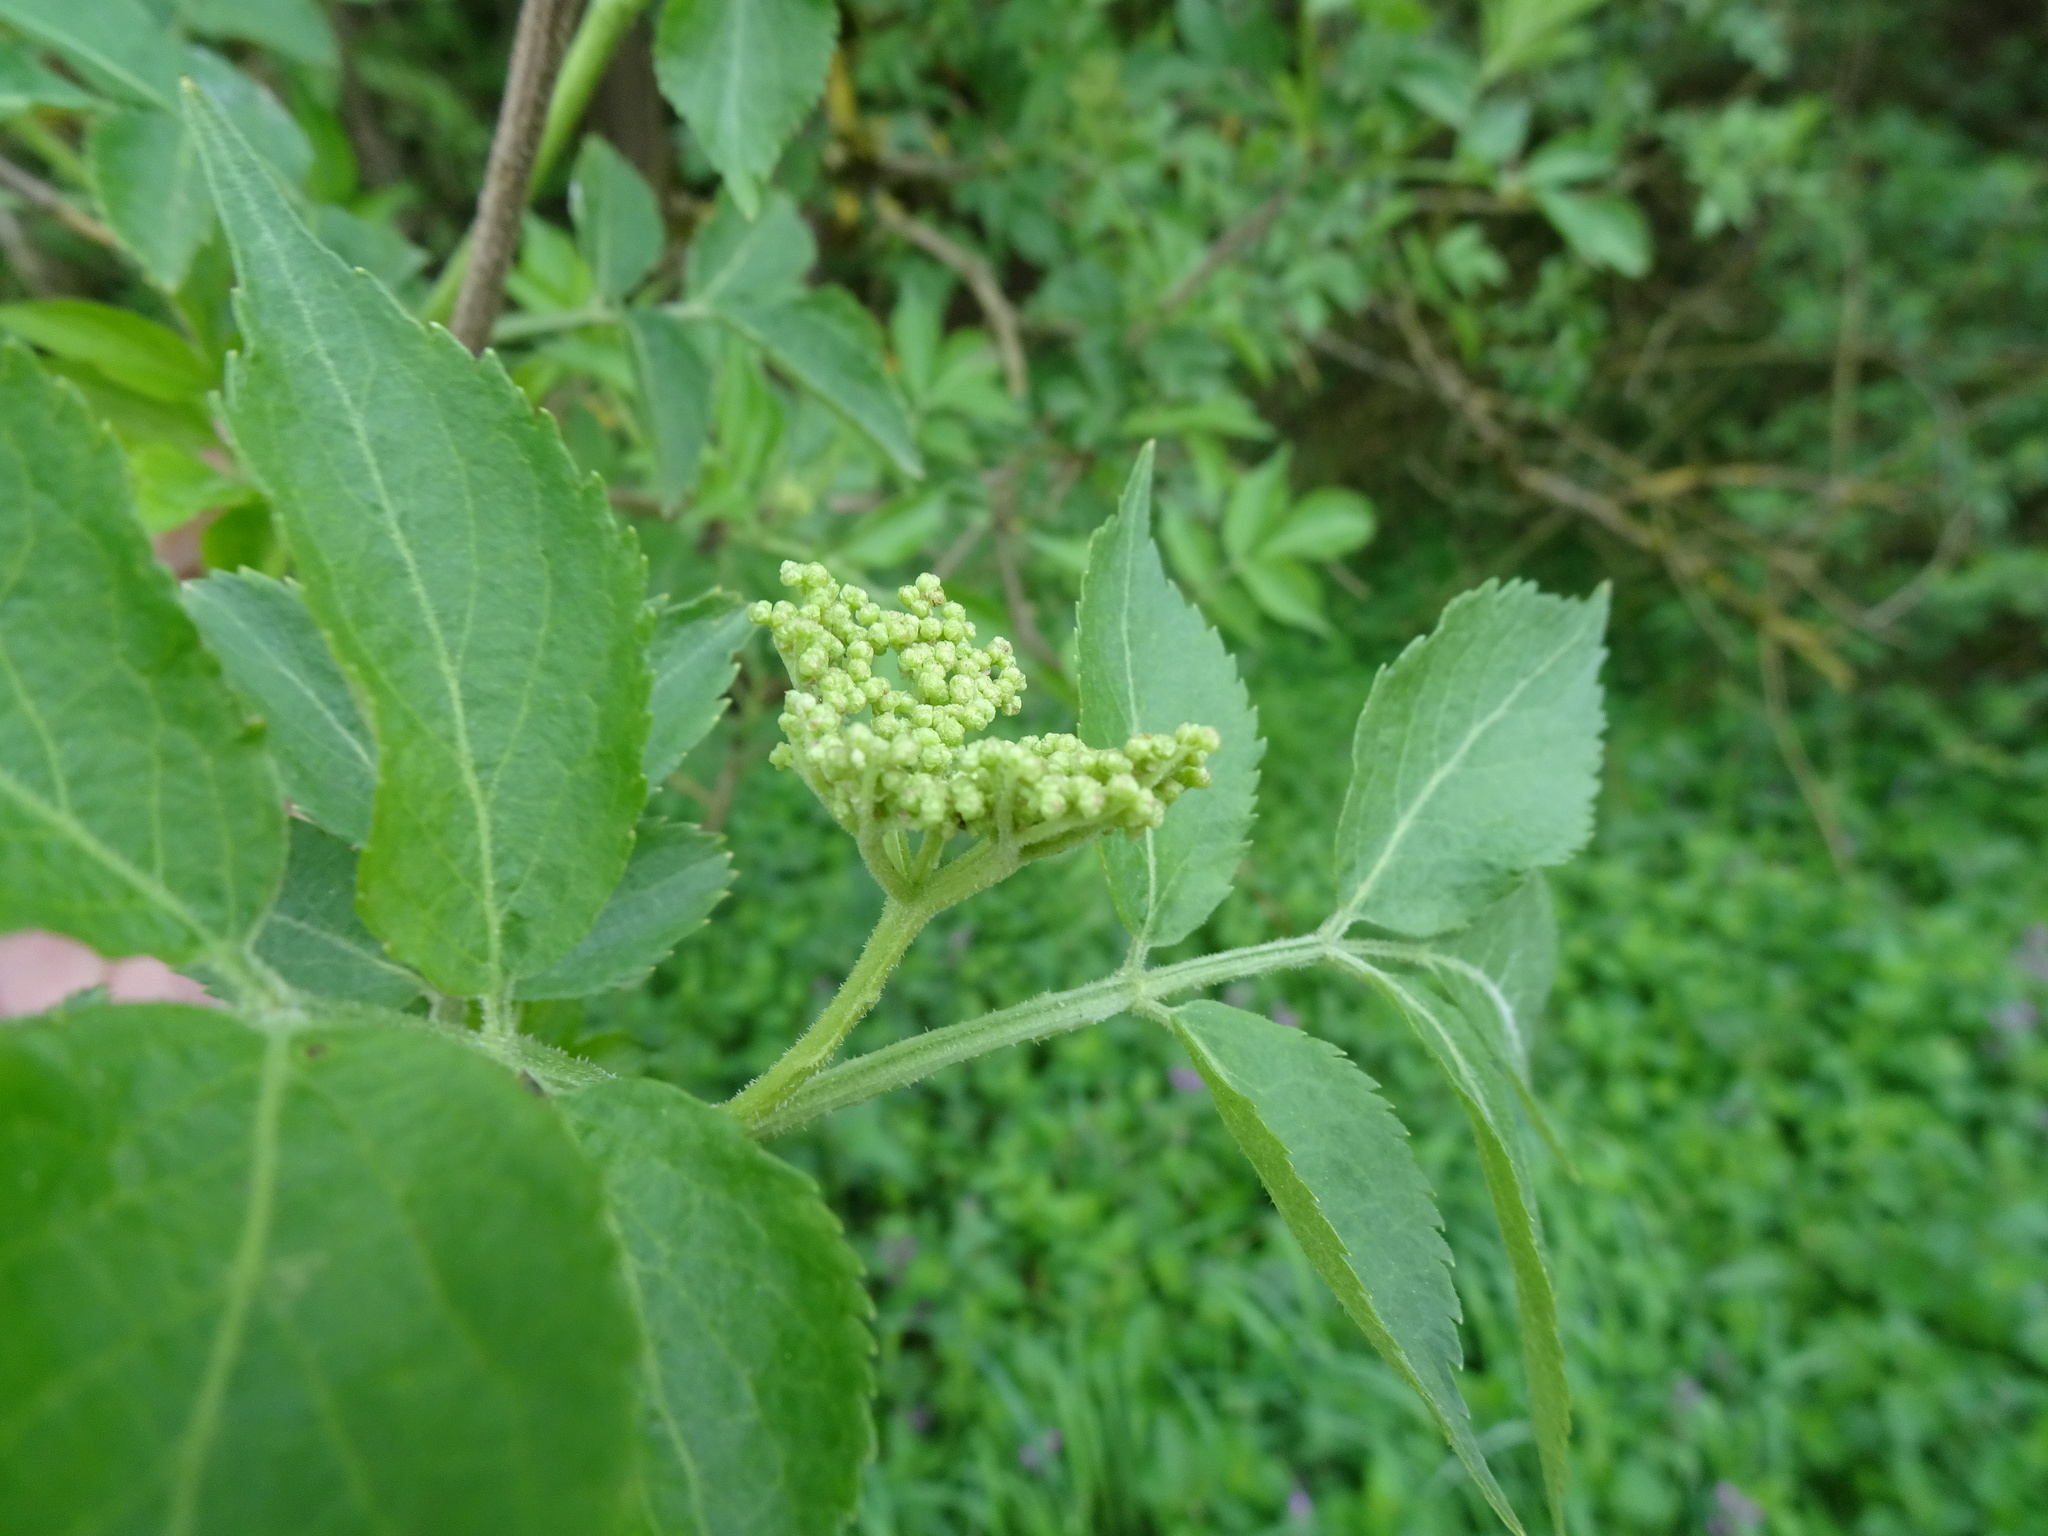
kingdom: Plantae
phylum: Tracheophyta
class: Magnoliopsida
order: Dipsacales
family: Viburnaceae
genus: Sambucus
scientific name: Sambucus nigra
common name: Elder
